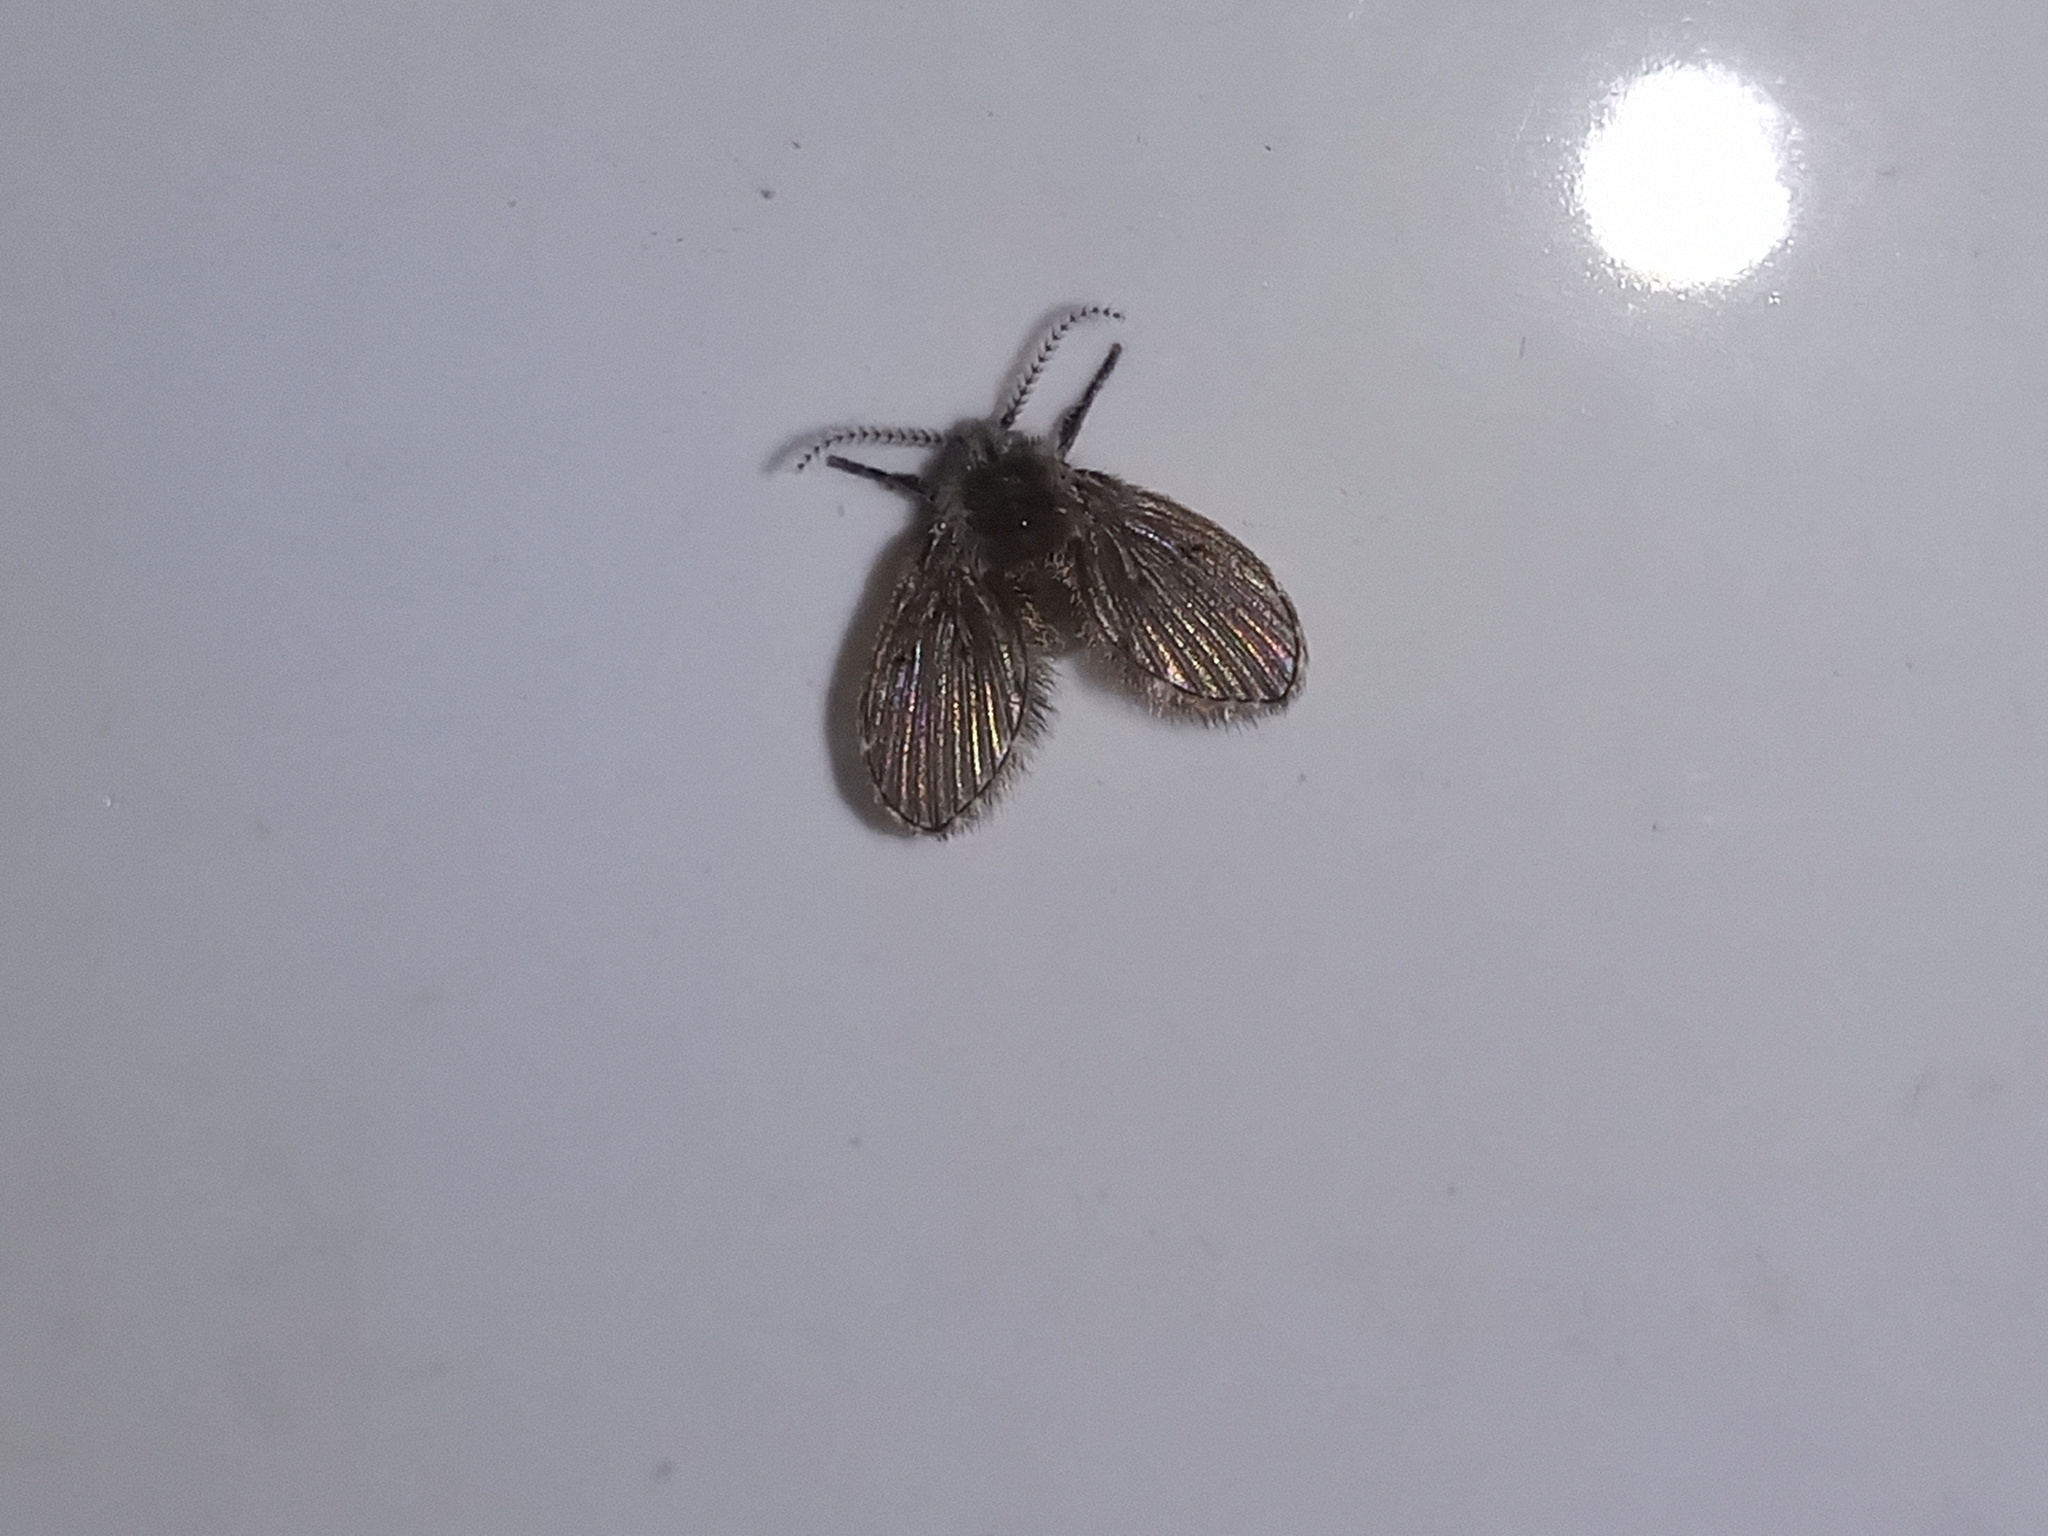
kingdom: Animalia
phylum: Arthropoda
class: Insecta
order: Diptera
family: Psychodidae
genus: Clogmia
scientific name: Clogmia albipunctatus
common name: White-spotted moth fly
